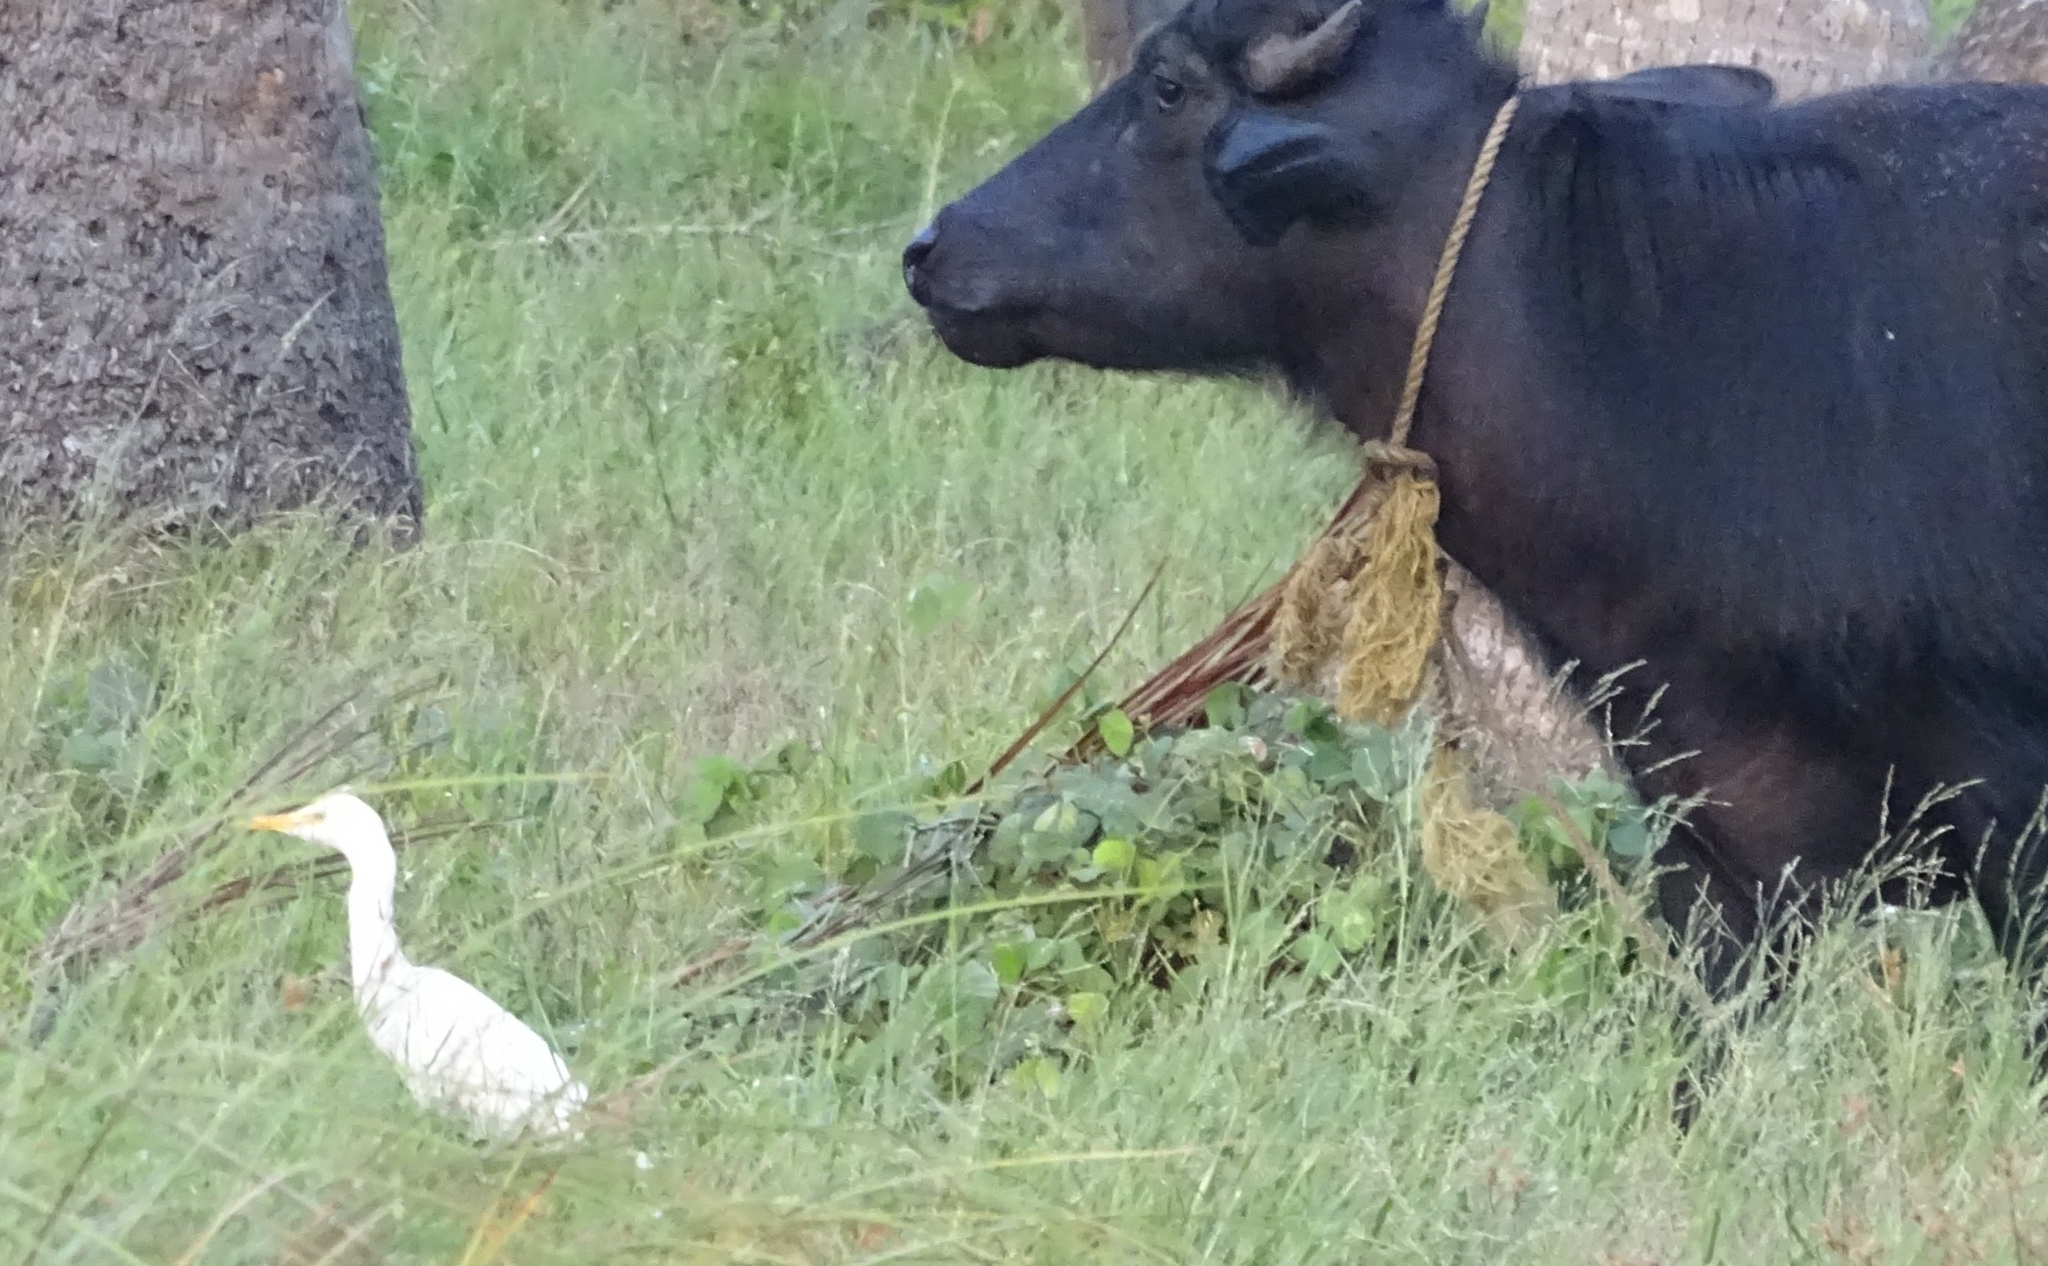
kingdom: Animalia
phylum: Chordata
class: Aves
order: Pelecaniformes
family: Ardeidae
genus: Bubulcus
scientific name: Bubulcus coromandus
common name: Eastern cattle egret
